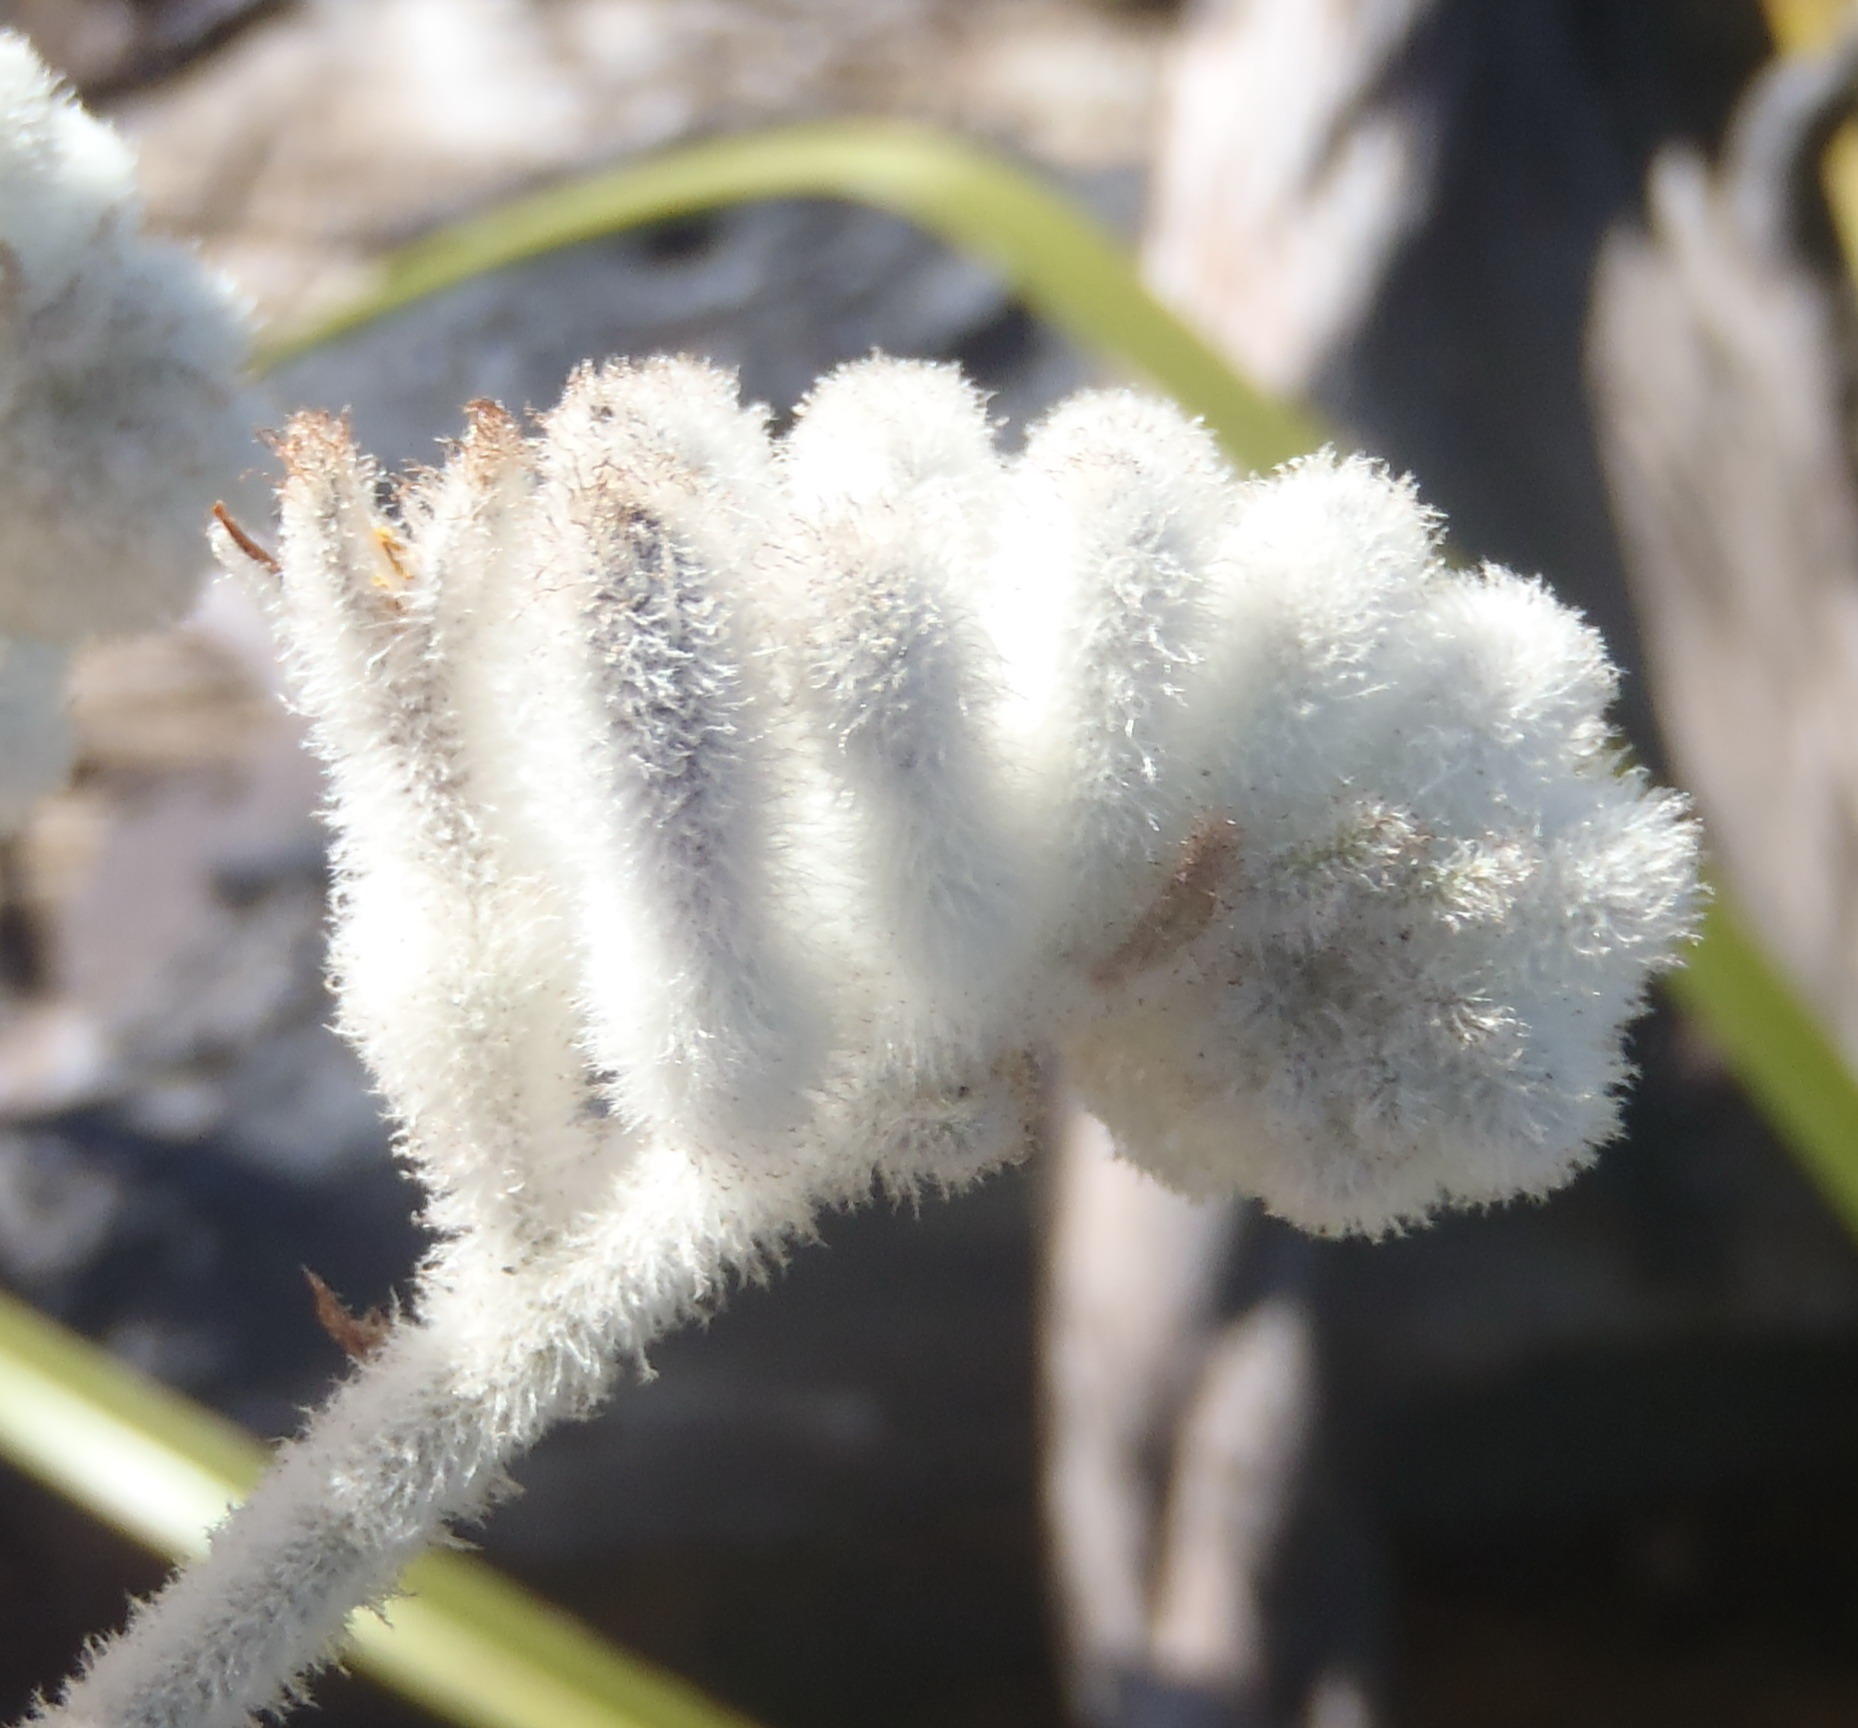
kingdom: Plantae
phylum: Tracheophyta
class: Liliopsida
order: Asparagales
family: Lanariaceae
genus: Lanaria
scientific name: Lanaria lanata
